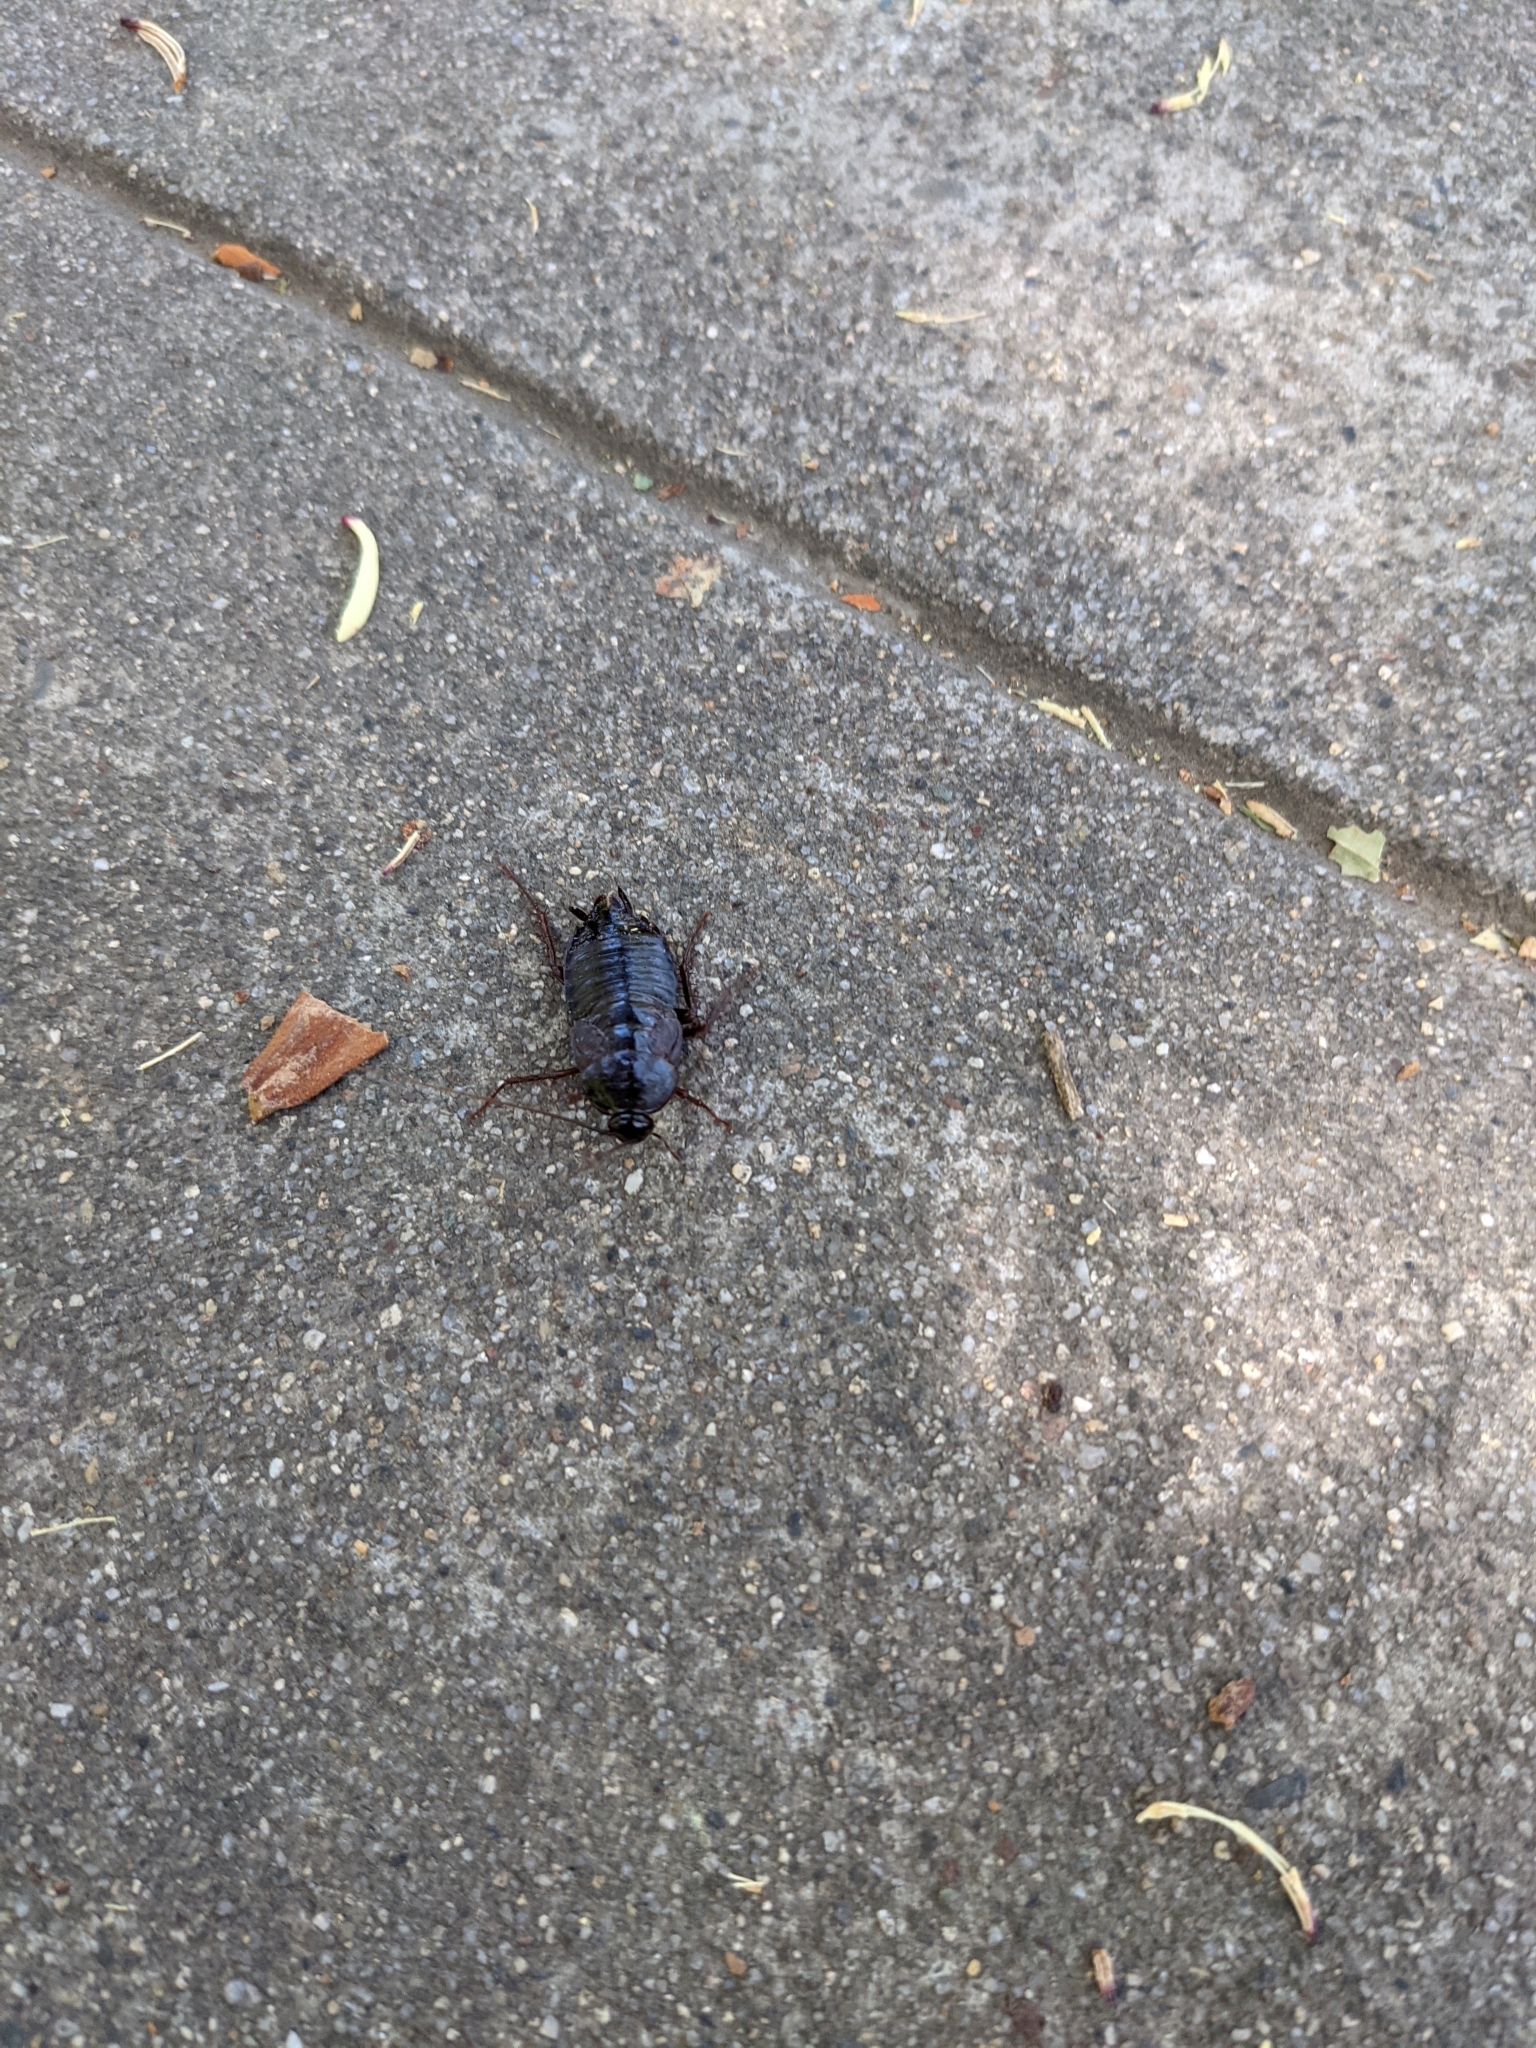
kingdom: Animalia
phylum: Arthropoda
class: Insecta
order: Blattodea
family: Blattidae
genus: Blatta
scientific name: Blatta orientalis
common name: Oriental cockroach
